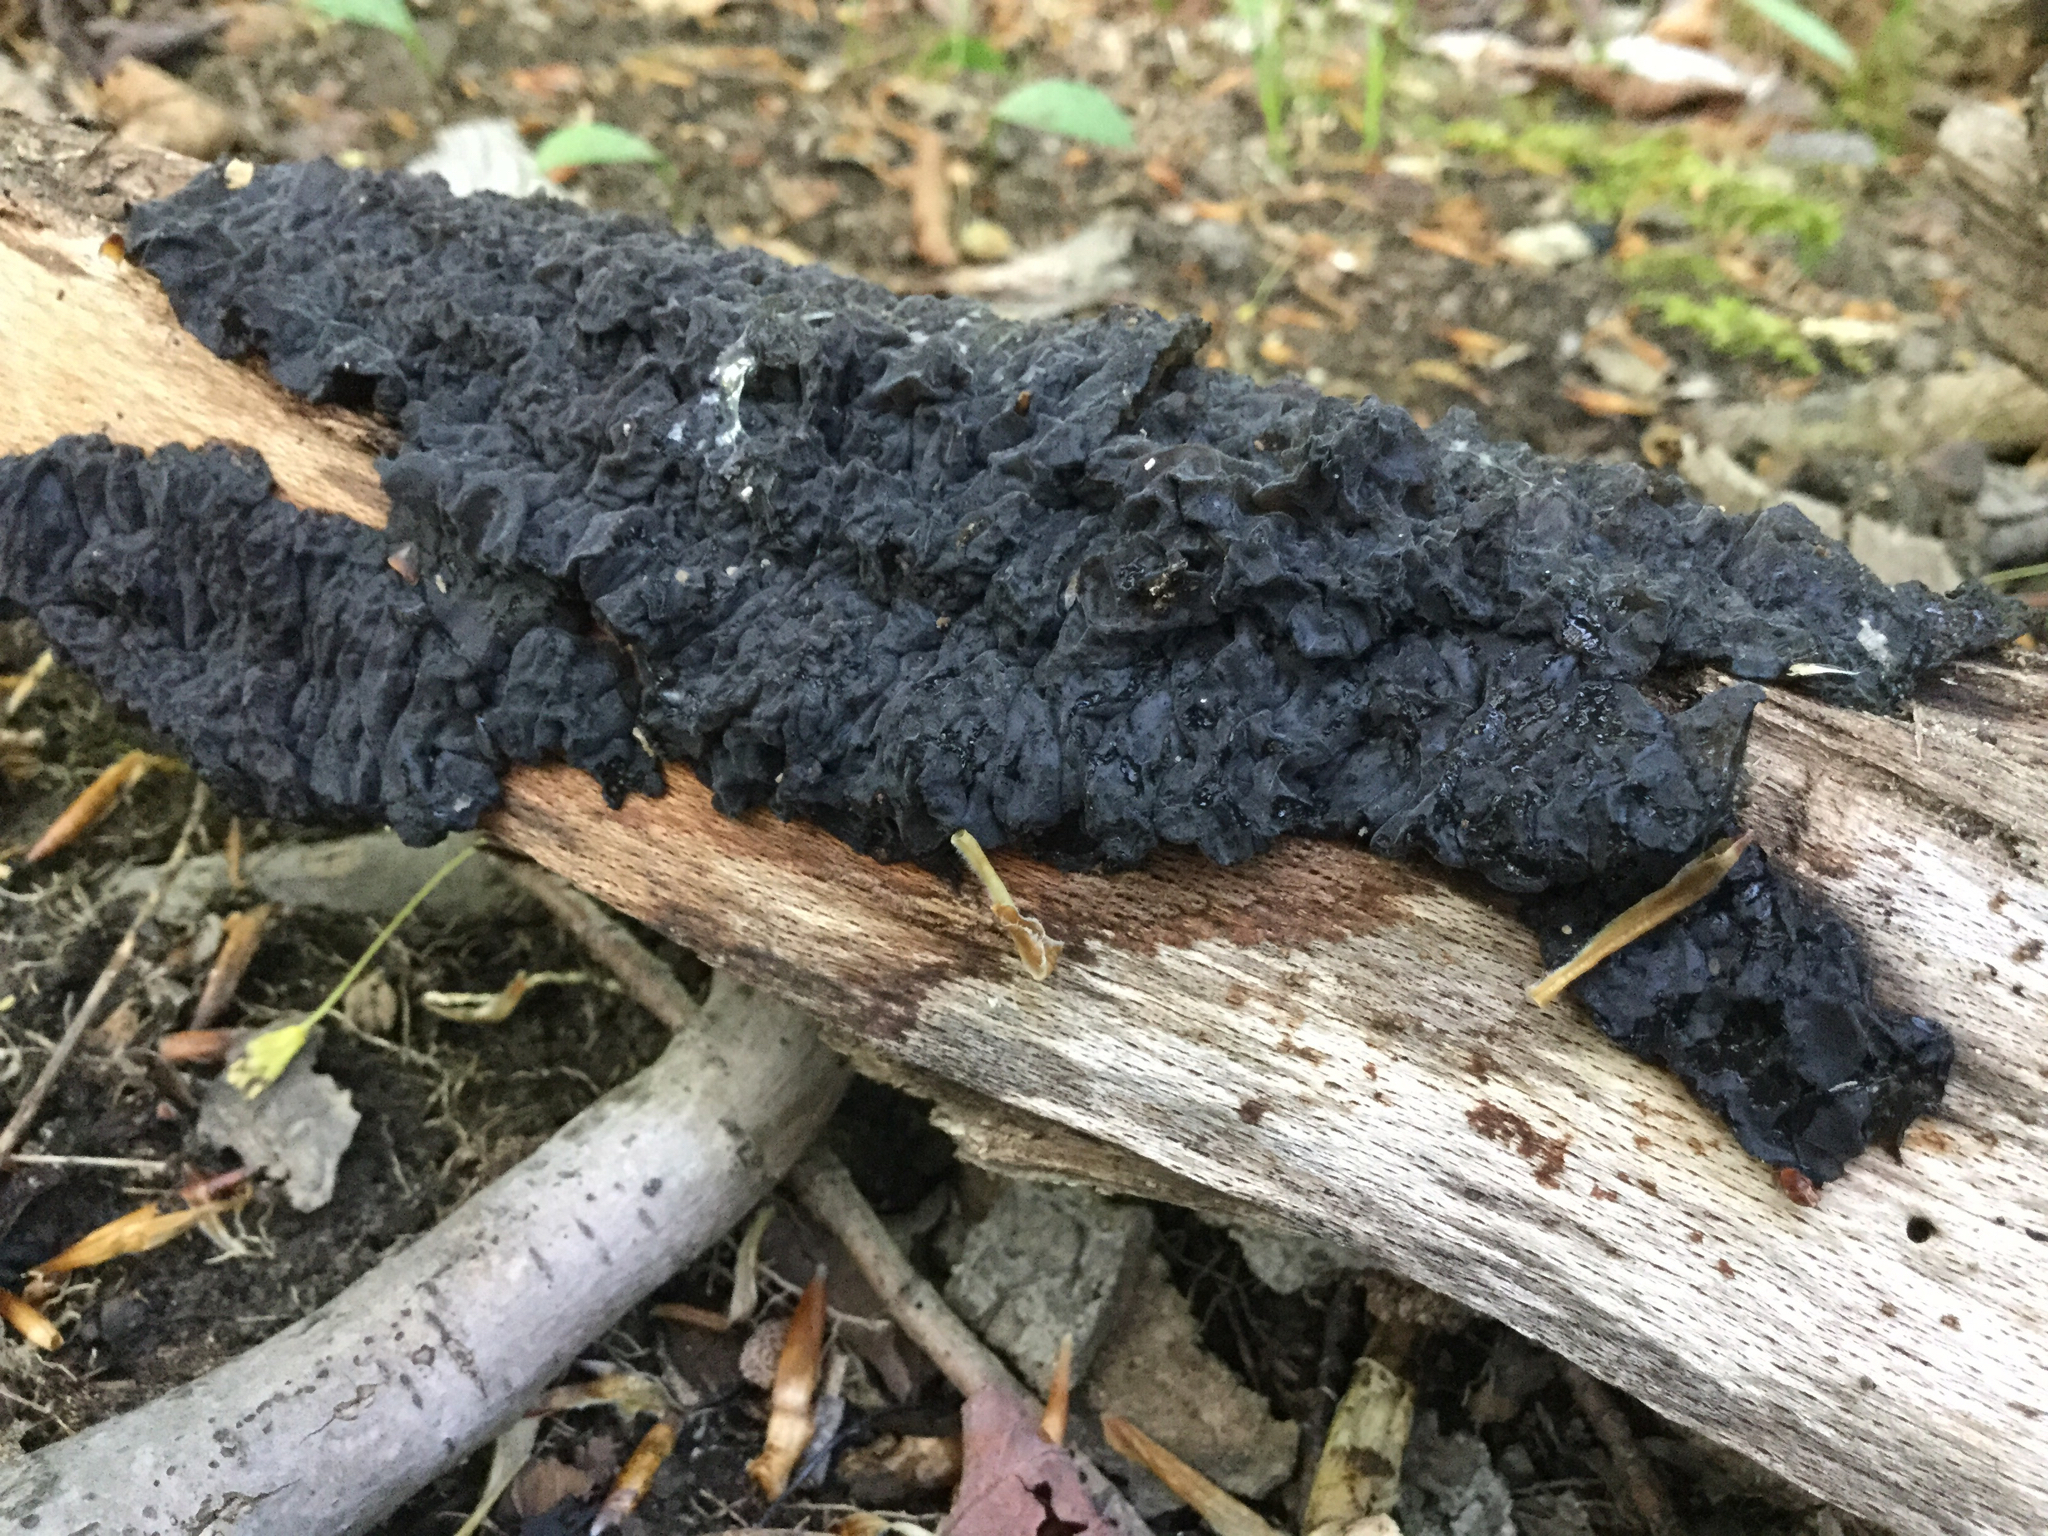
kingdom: Fungi
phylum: Basidiomycota
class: Agaricomycetes
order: Auriculariales
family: Auriculariaceae
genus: Exidia
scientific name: Exidia glandulosa
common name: Witches' butter
